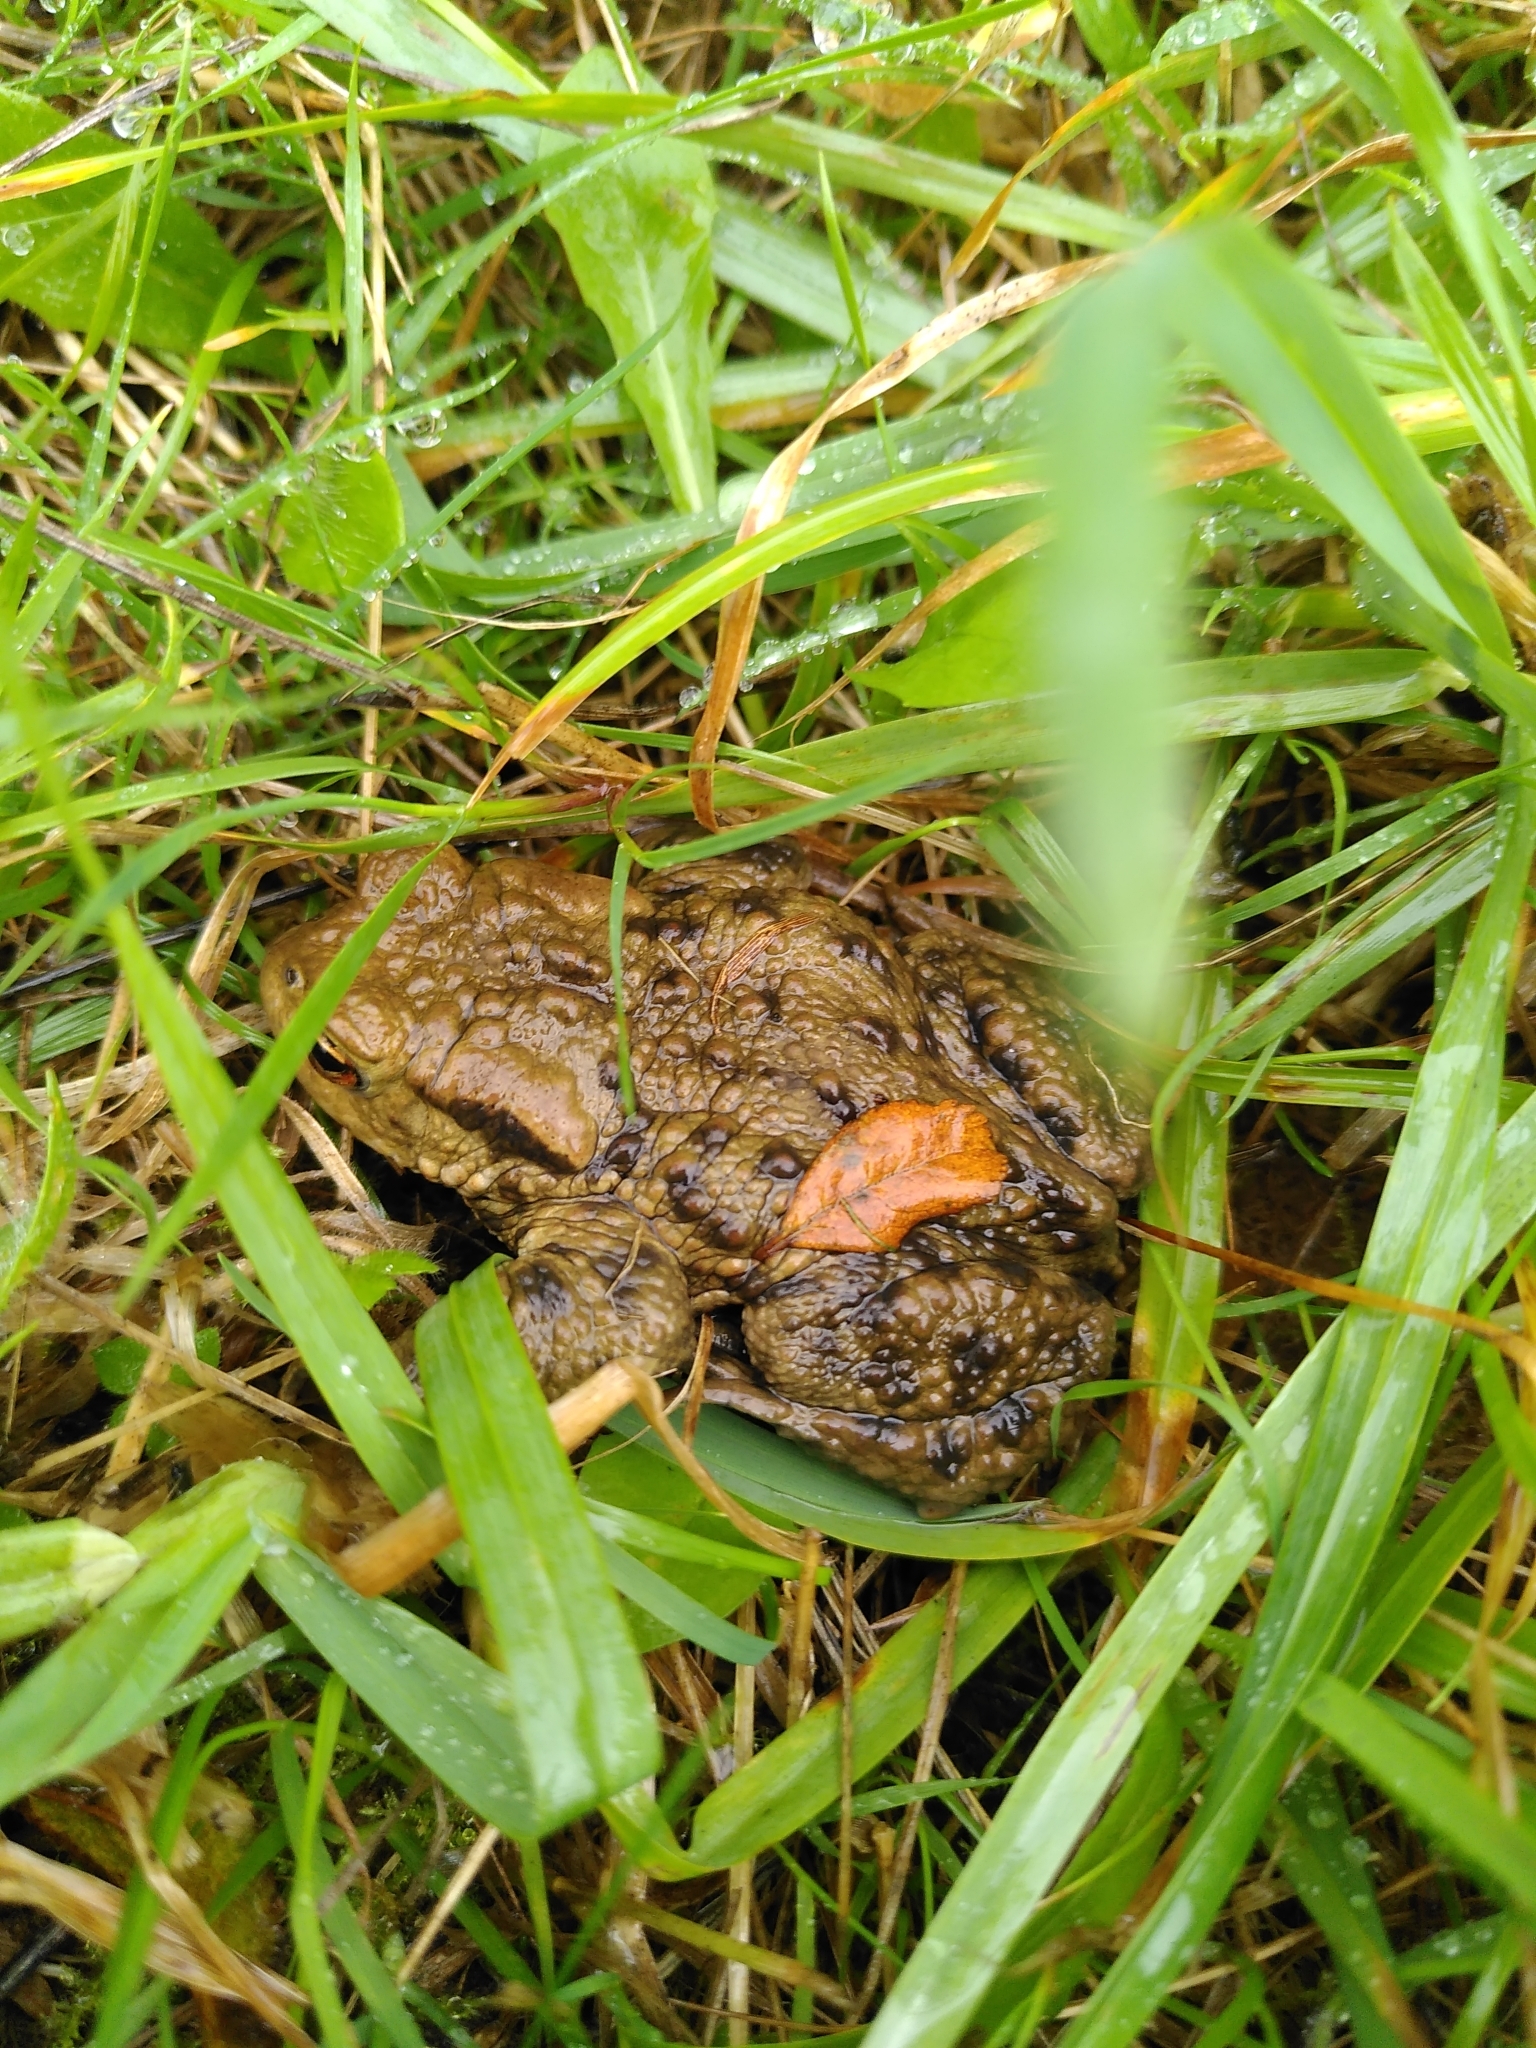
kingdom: Animalia
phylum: Chordata
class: Amphibia
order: Anura
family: Bufonidae
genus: Bufo
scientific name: Bufo bufo
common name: Common toad
